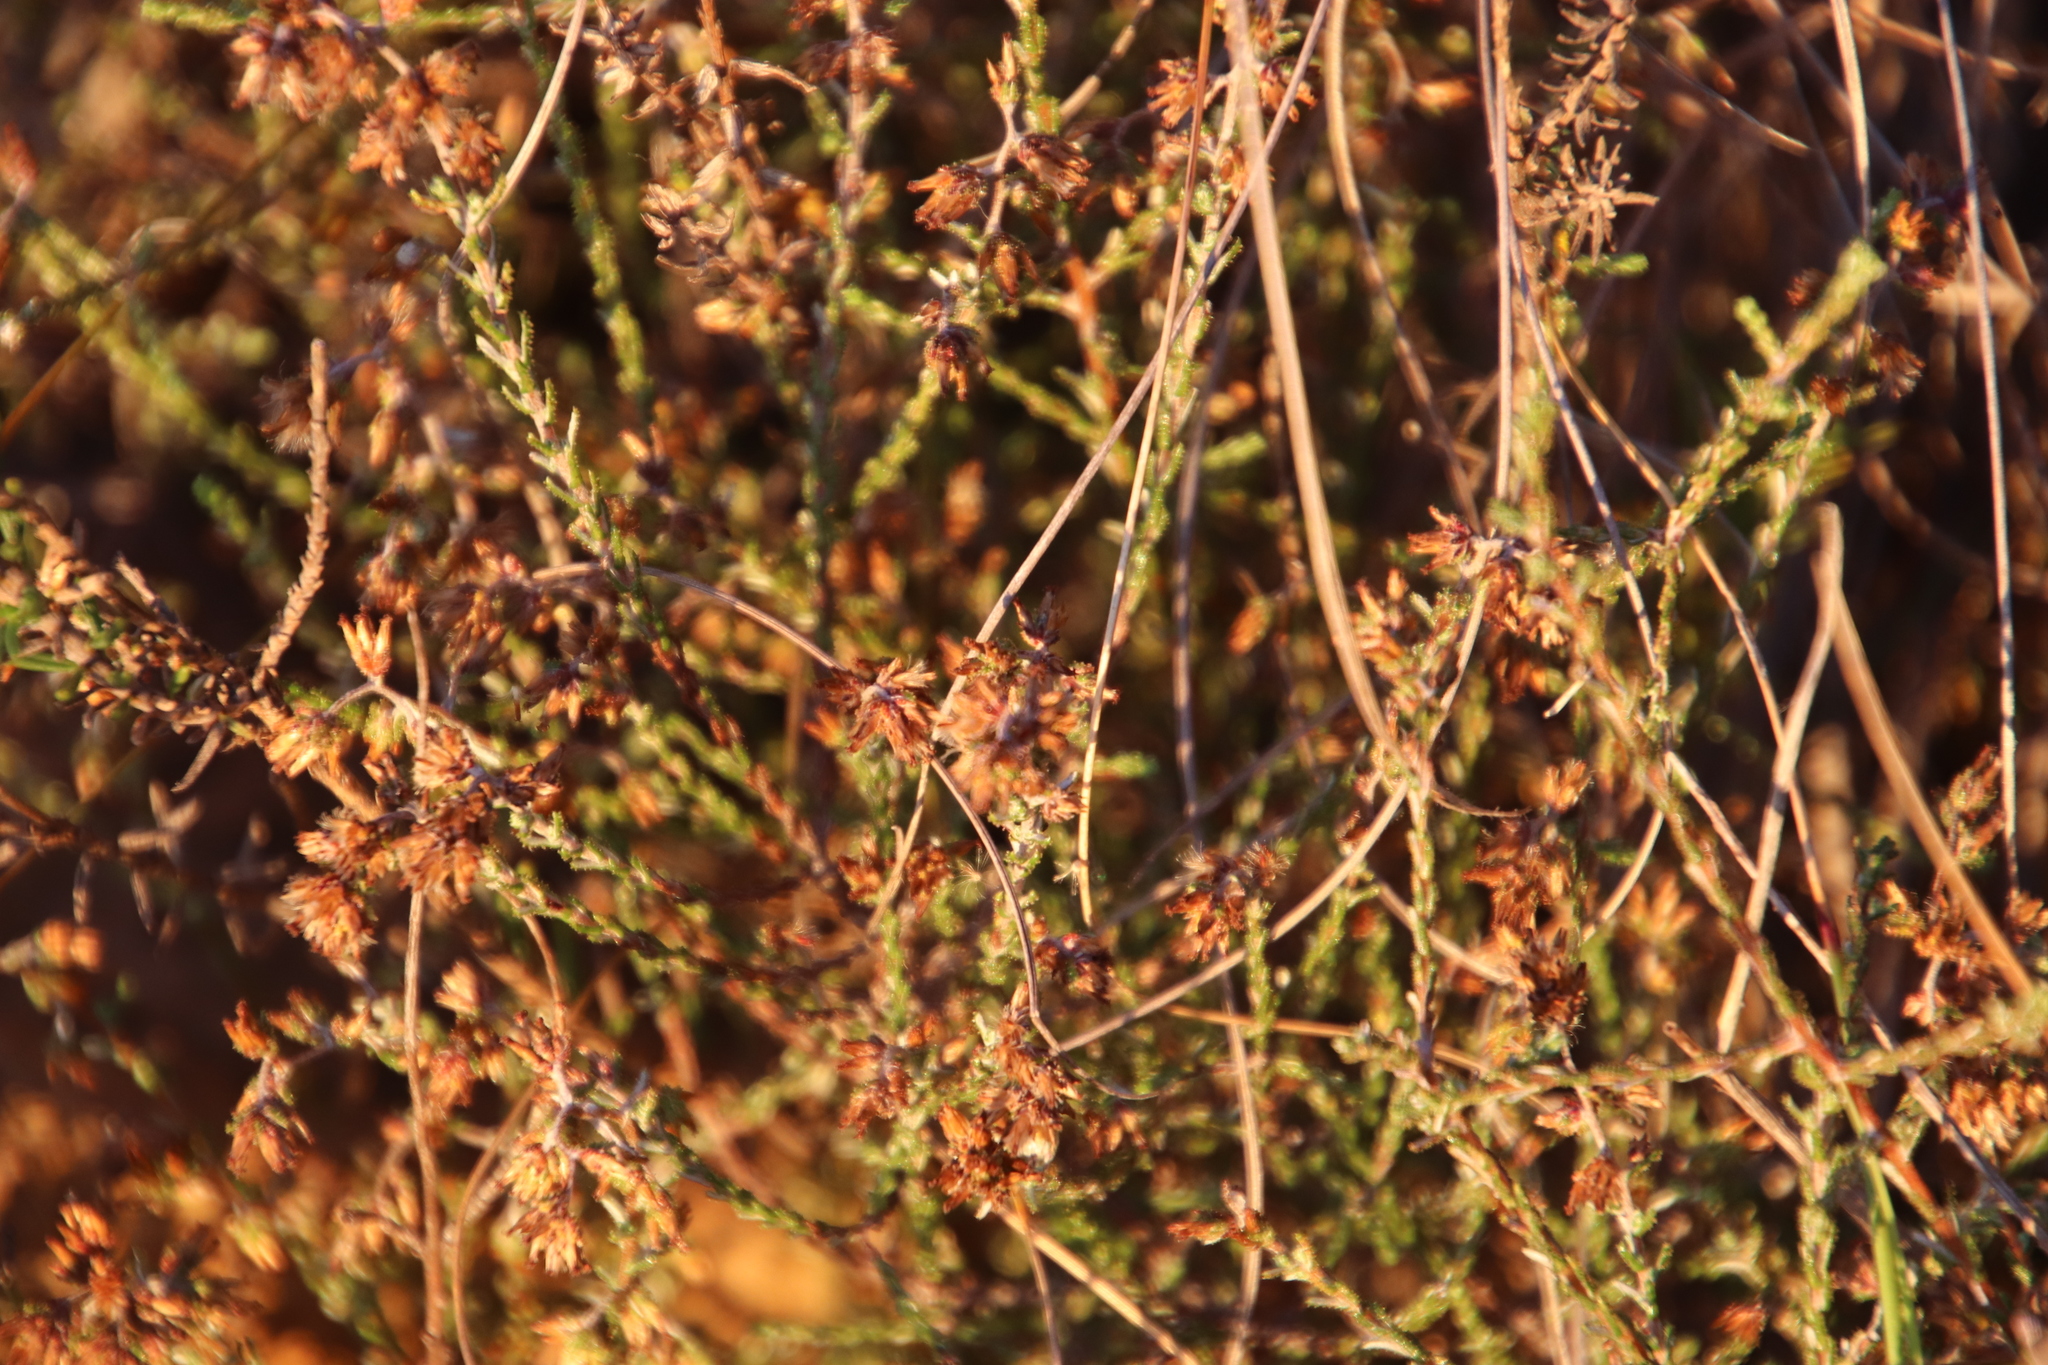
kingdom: Plantae
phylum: Tracheophyta
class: Magnoliopsida
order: Asterales
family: Asteraceae
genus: Myrovernix
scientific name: Myrovernix scaber
